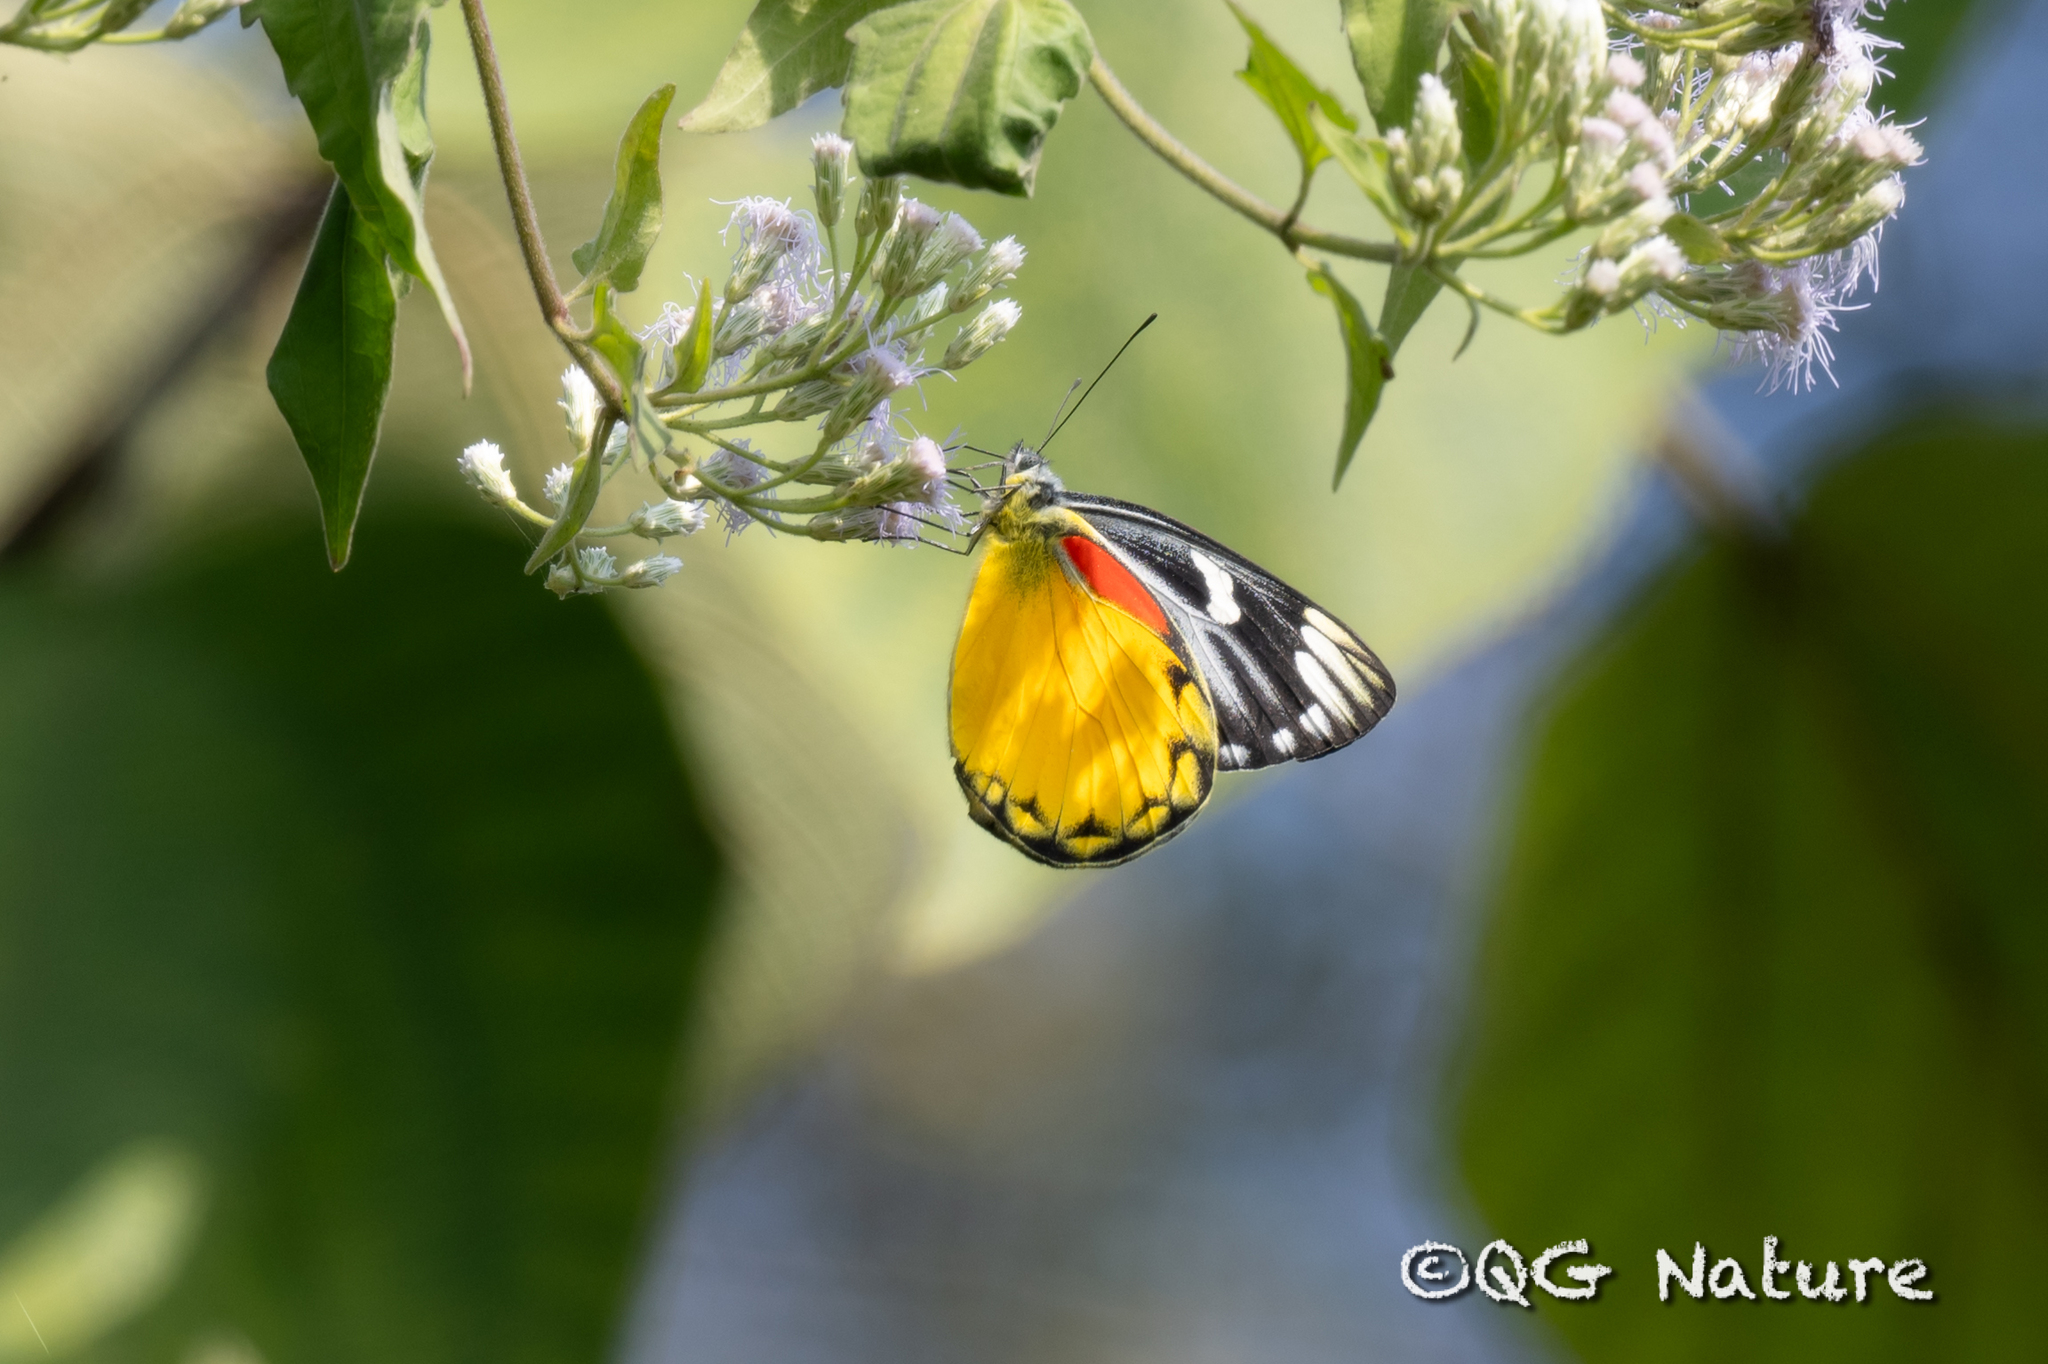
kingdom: Animalia
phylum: Arthropoda
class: Insecta
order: Lepidoptera
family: Pieridae
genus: Delias
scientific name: Delias descombesi
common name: Red-spot jezebel
